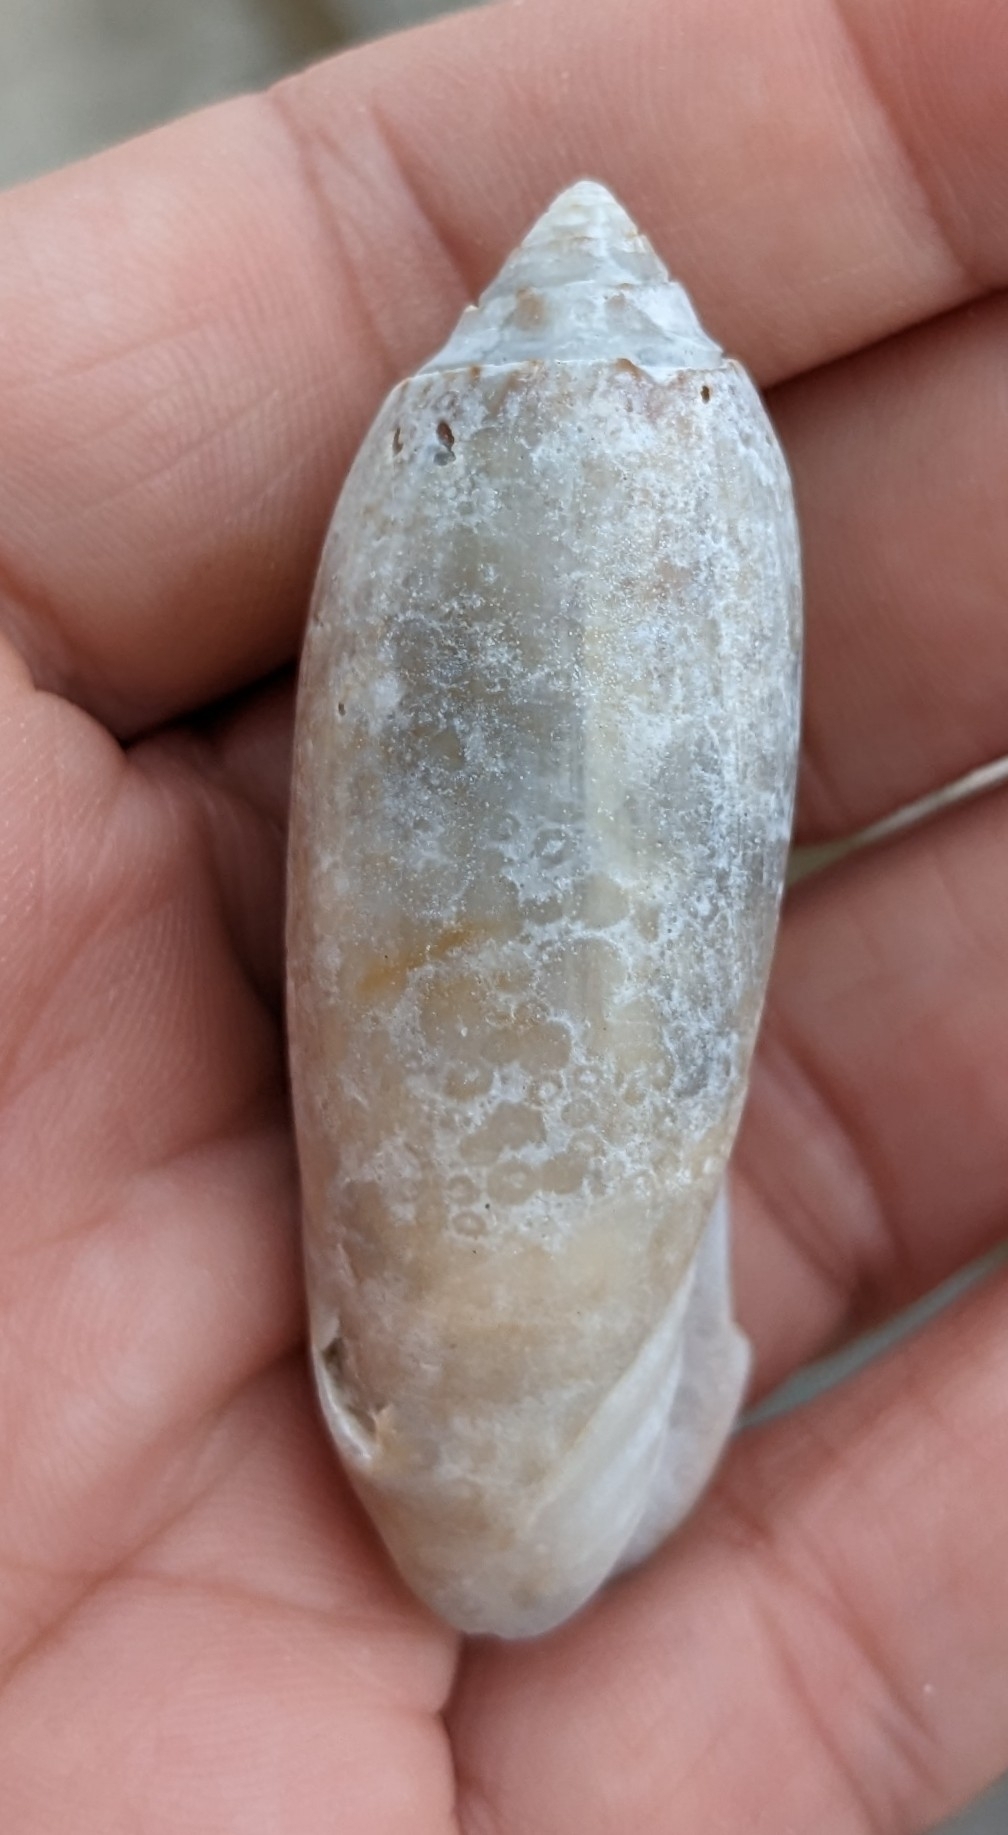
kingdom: Animalia
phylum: Mollusca
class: Gastropoda
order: Neogastropoda
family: Olividae
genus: Oliva
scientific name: Oliva sayana
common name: Lettered olive
